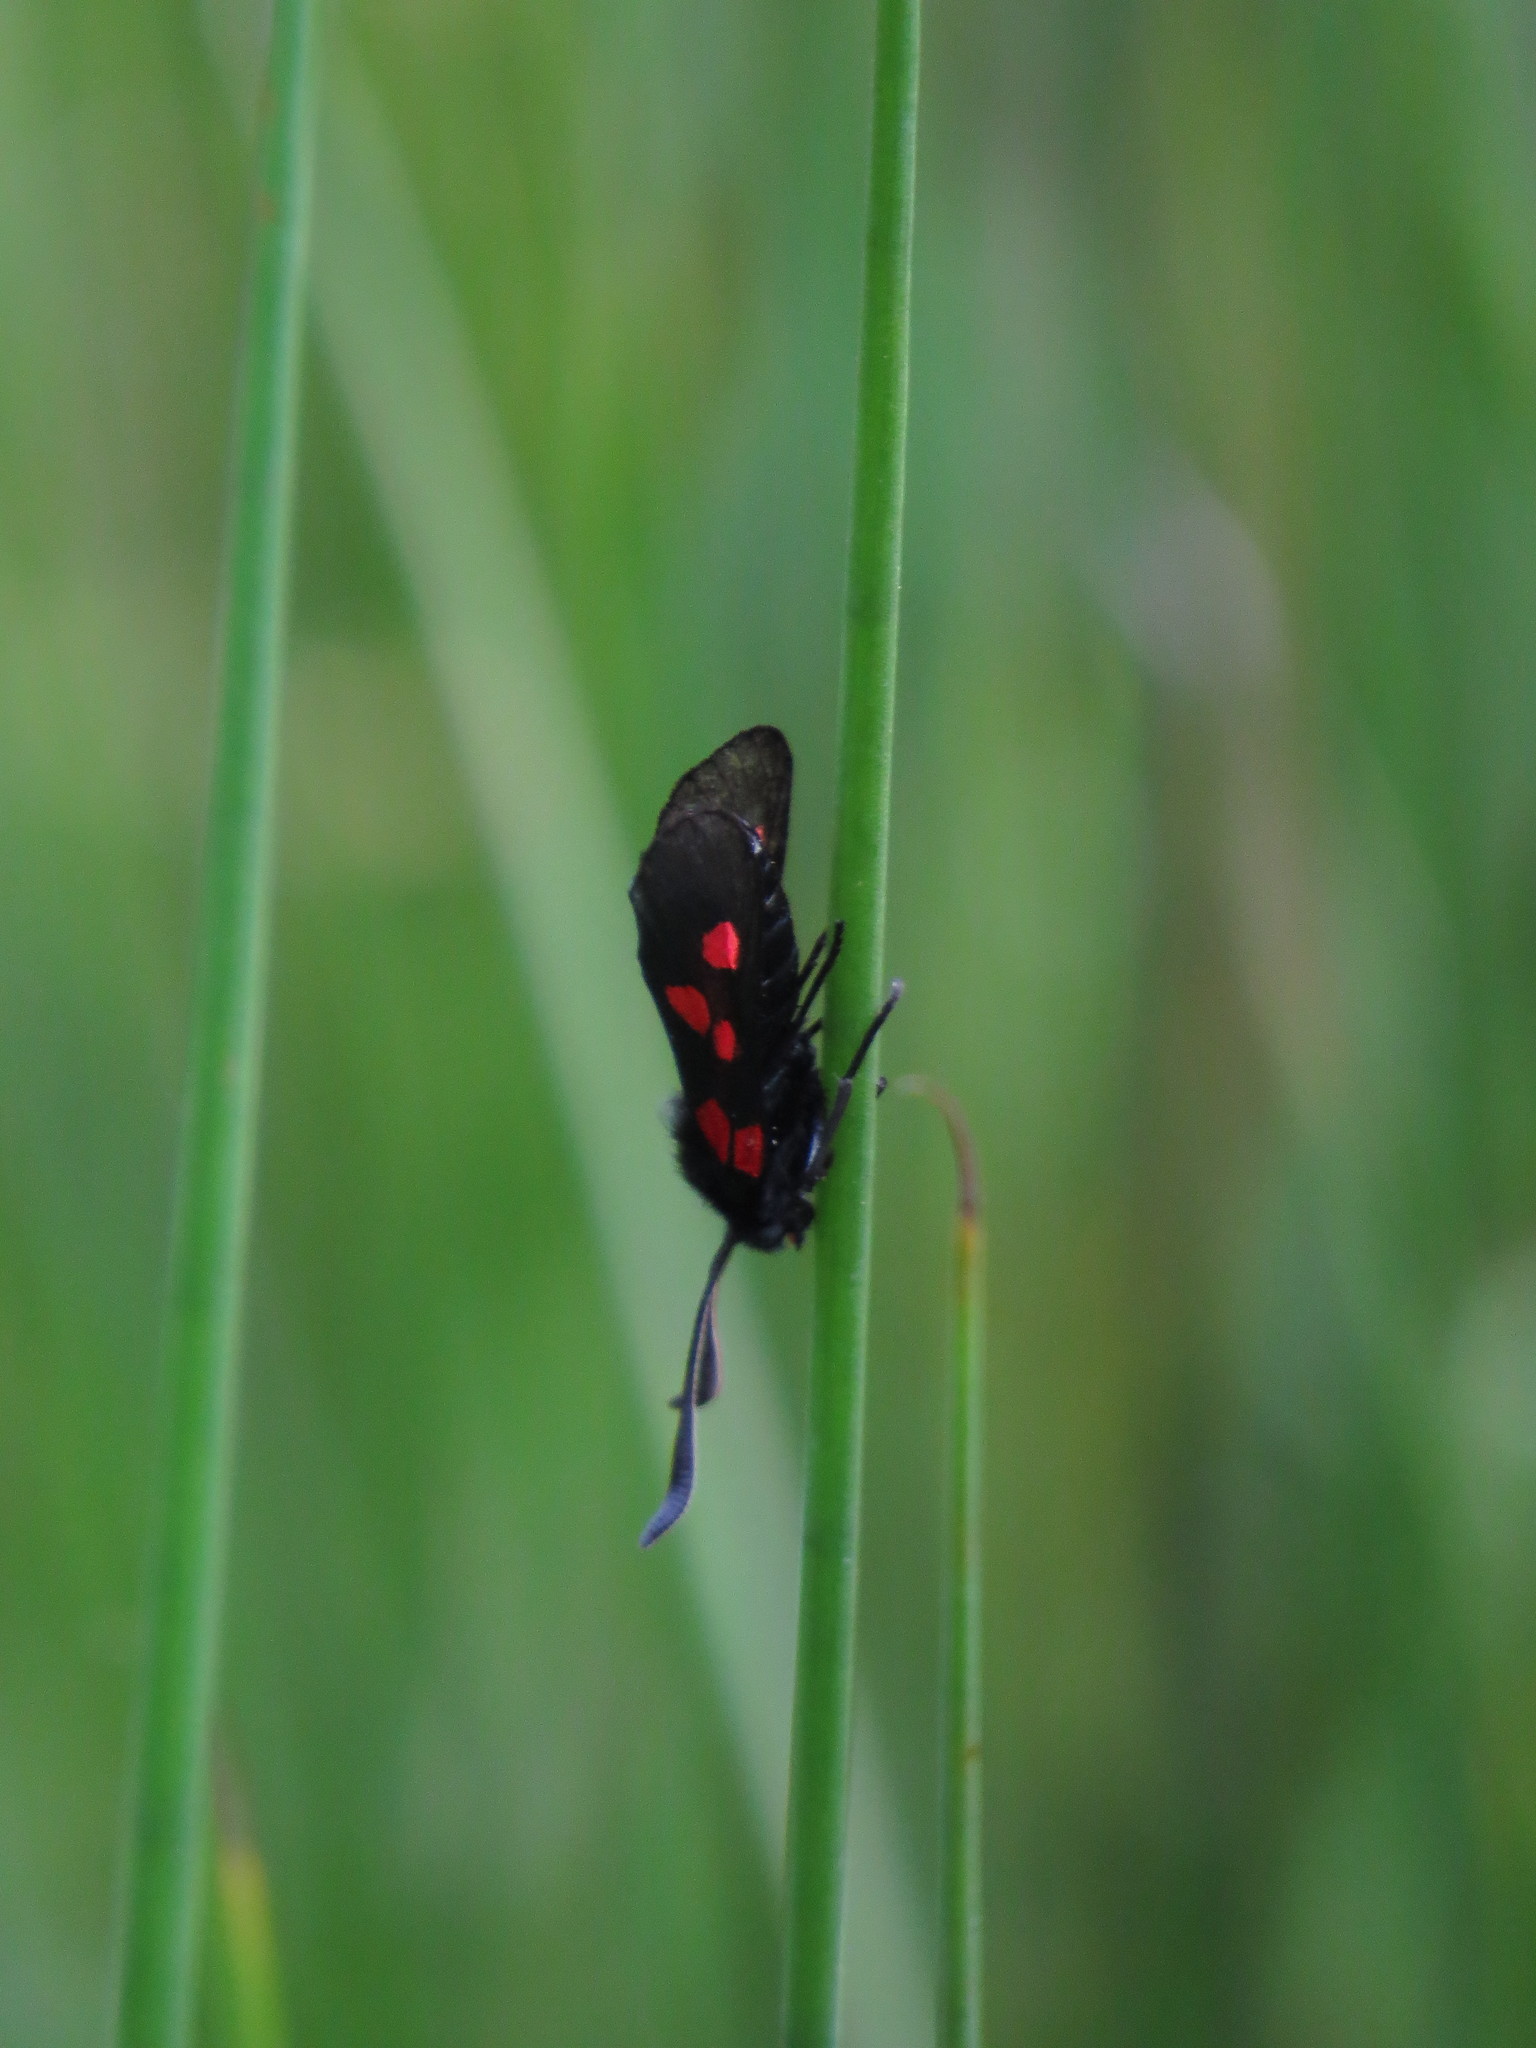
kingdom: Animalia
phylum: Arthropoda
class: Insecta
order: Lepidoptera
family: Zygaenidae
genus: Zygaena
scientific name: Zygaena lonicerae
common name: Narrow-bordered five-spot burnet
